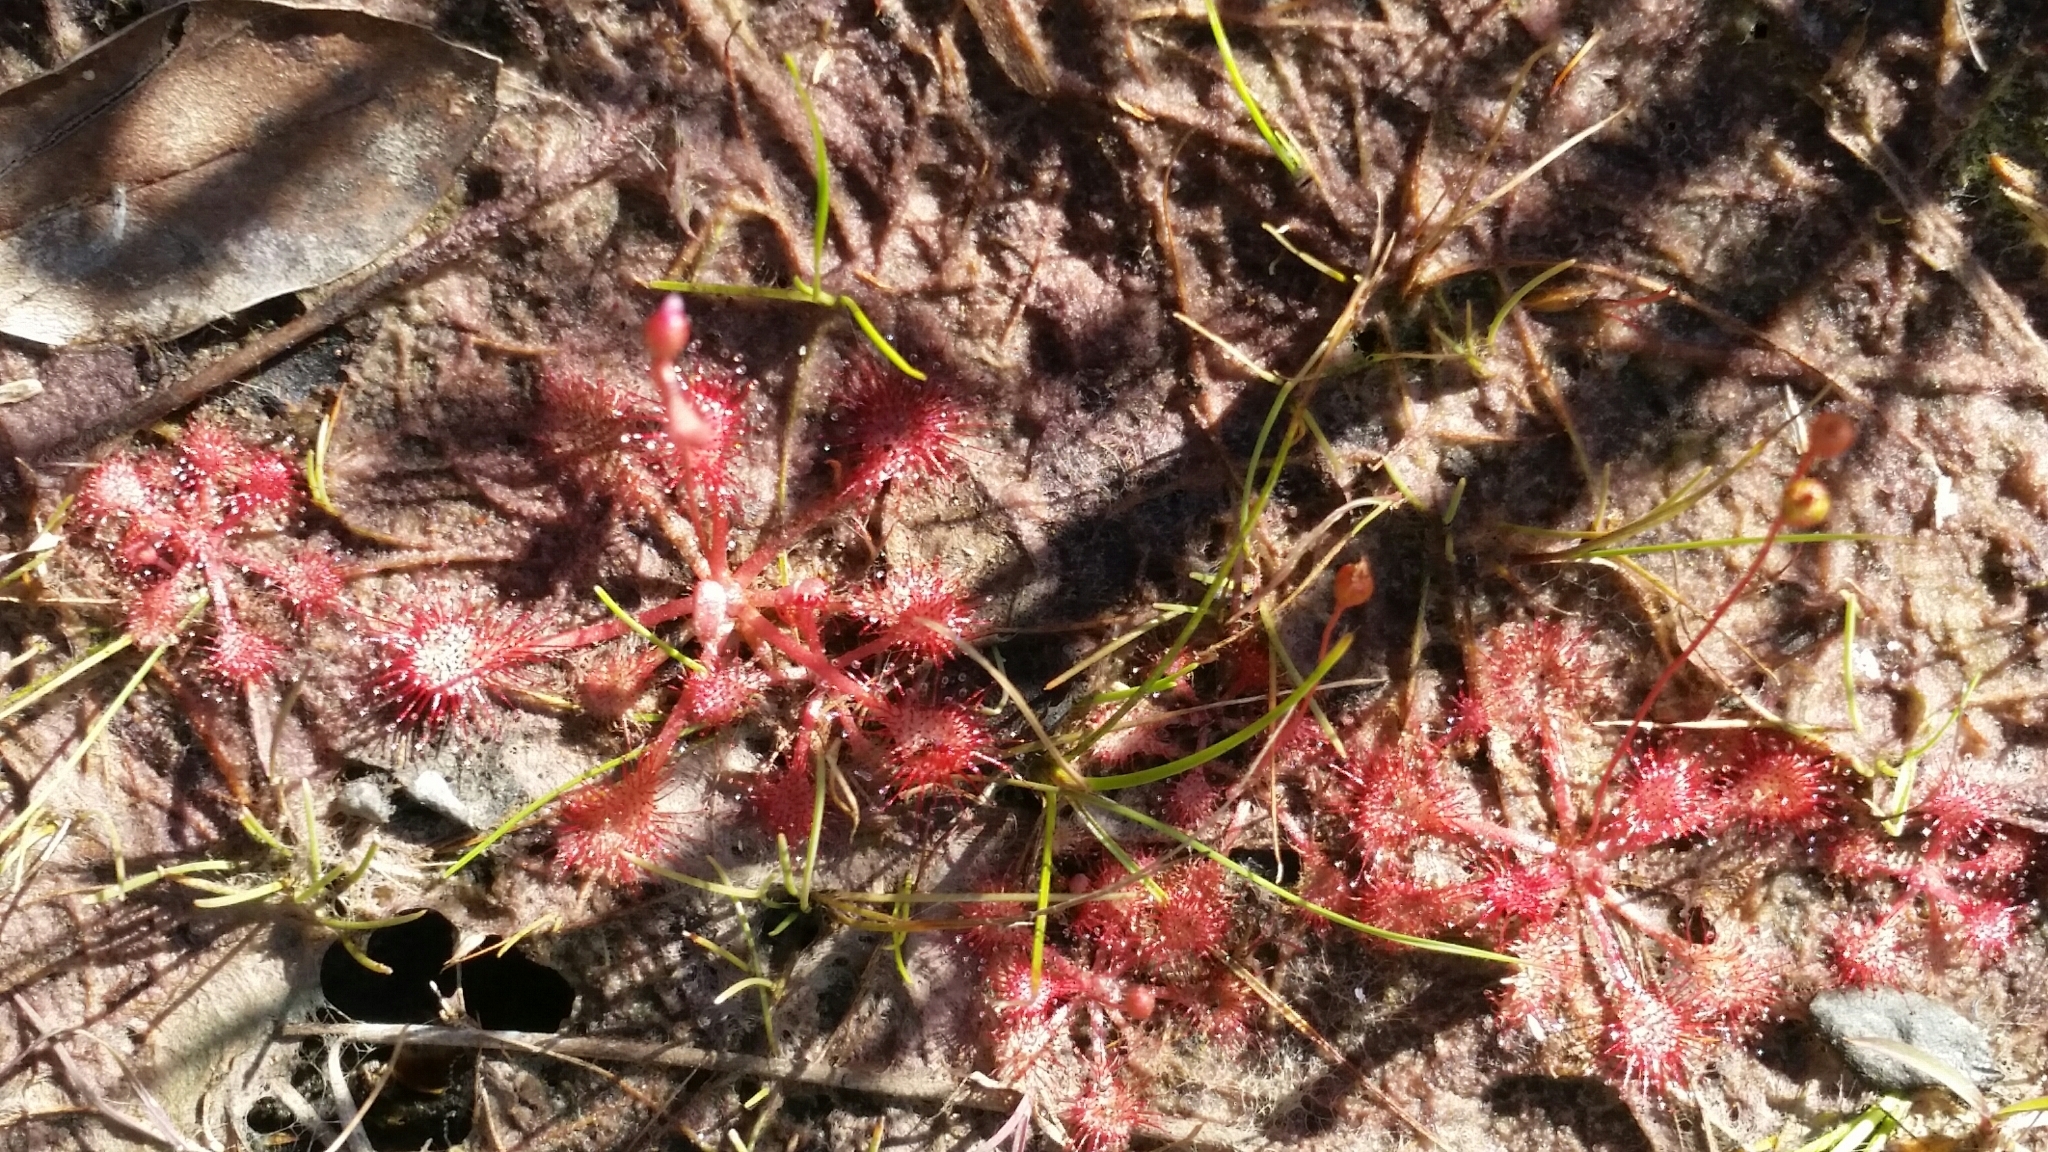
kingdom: Plantae
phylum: Tracheophyta
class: Magnoliopsida
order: Caryophyllales
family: Droseraceae
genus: Drosera
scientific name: Drosera capillaris
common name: Pink sundew
